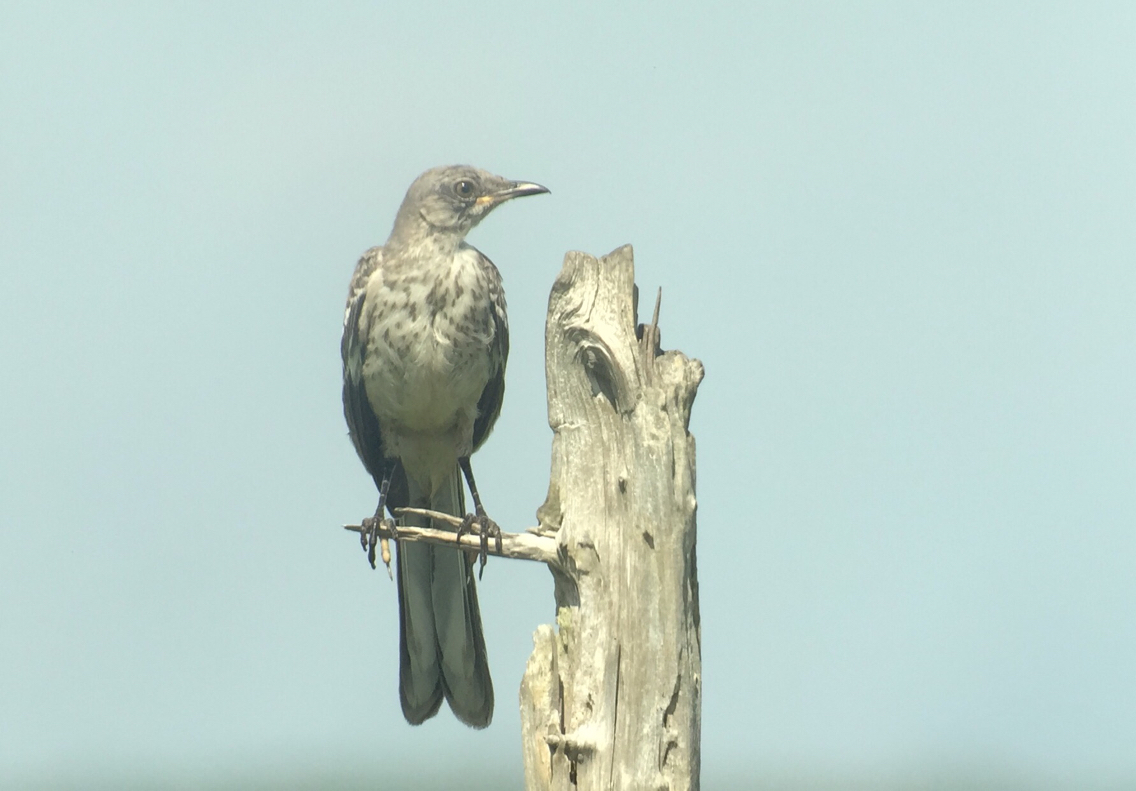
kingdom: Animalia
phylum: Chordata
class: Aves
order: Passeriformes
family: Mimidae
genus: Mimus
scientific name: Mimus polyglottos
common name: Northern mockingbird
